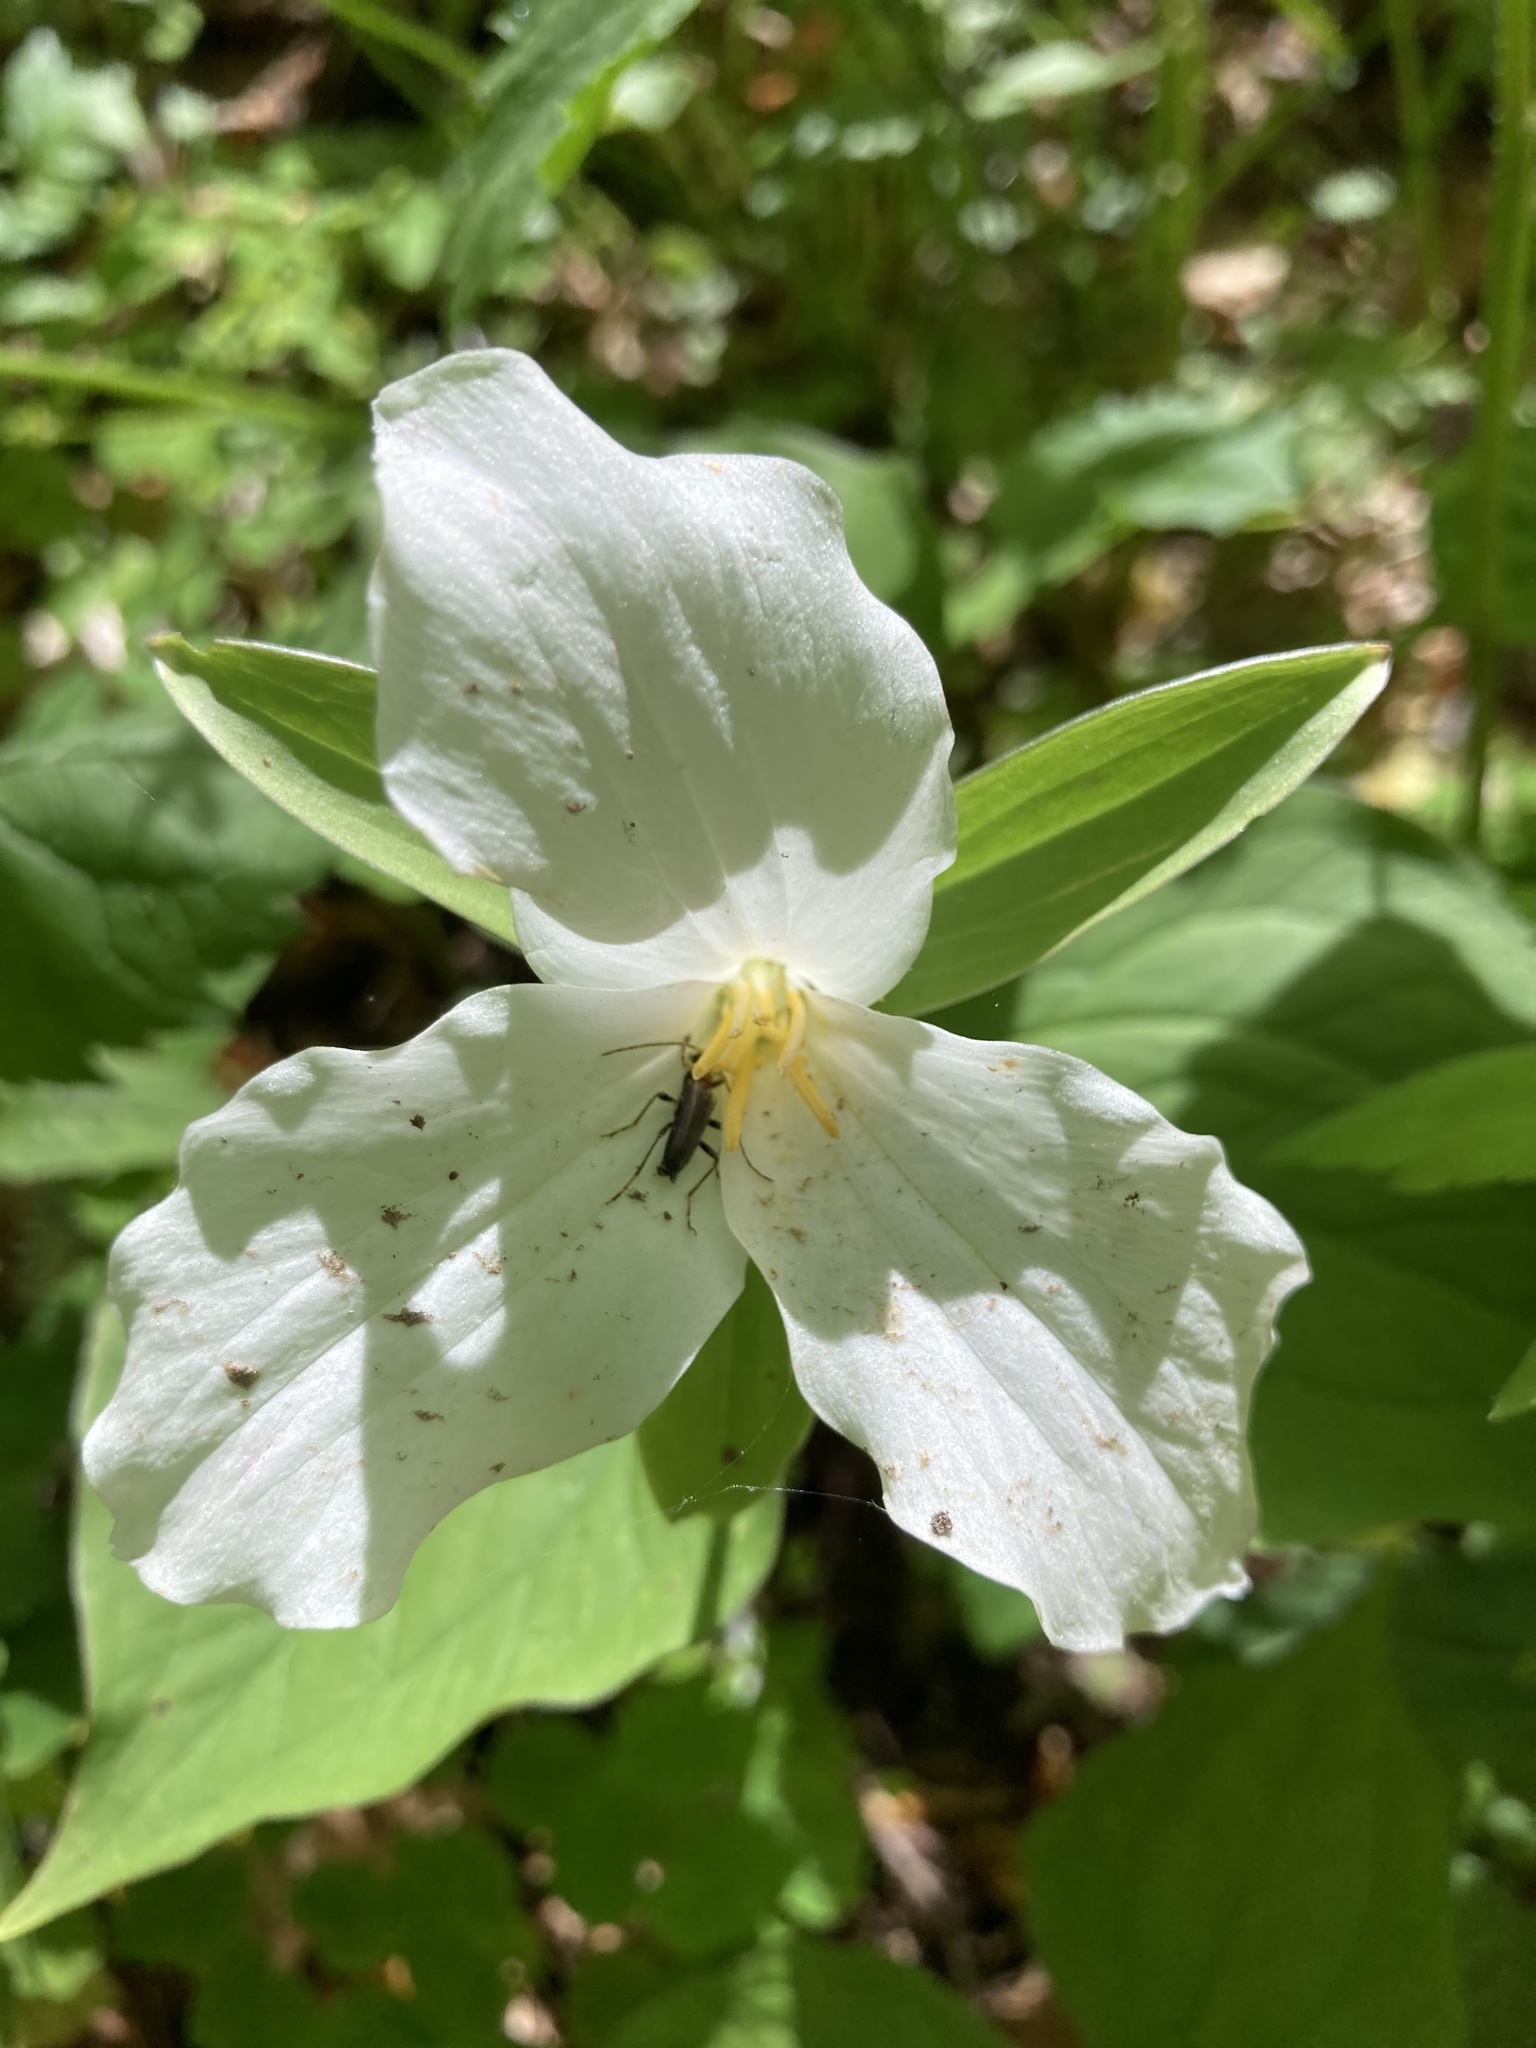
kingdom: Plantae
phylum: Tracheophyta
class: Liliopsida
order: Liliales
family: Melanthiaceae
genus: Trillium
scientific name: Trillium grandiflorum
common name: Great white trillium
